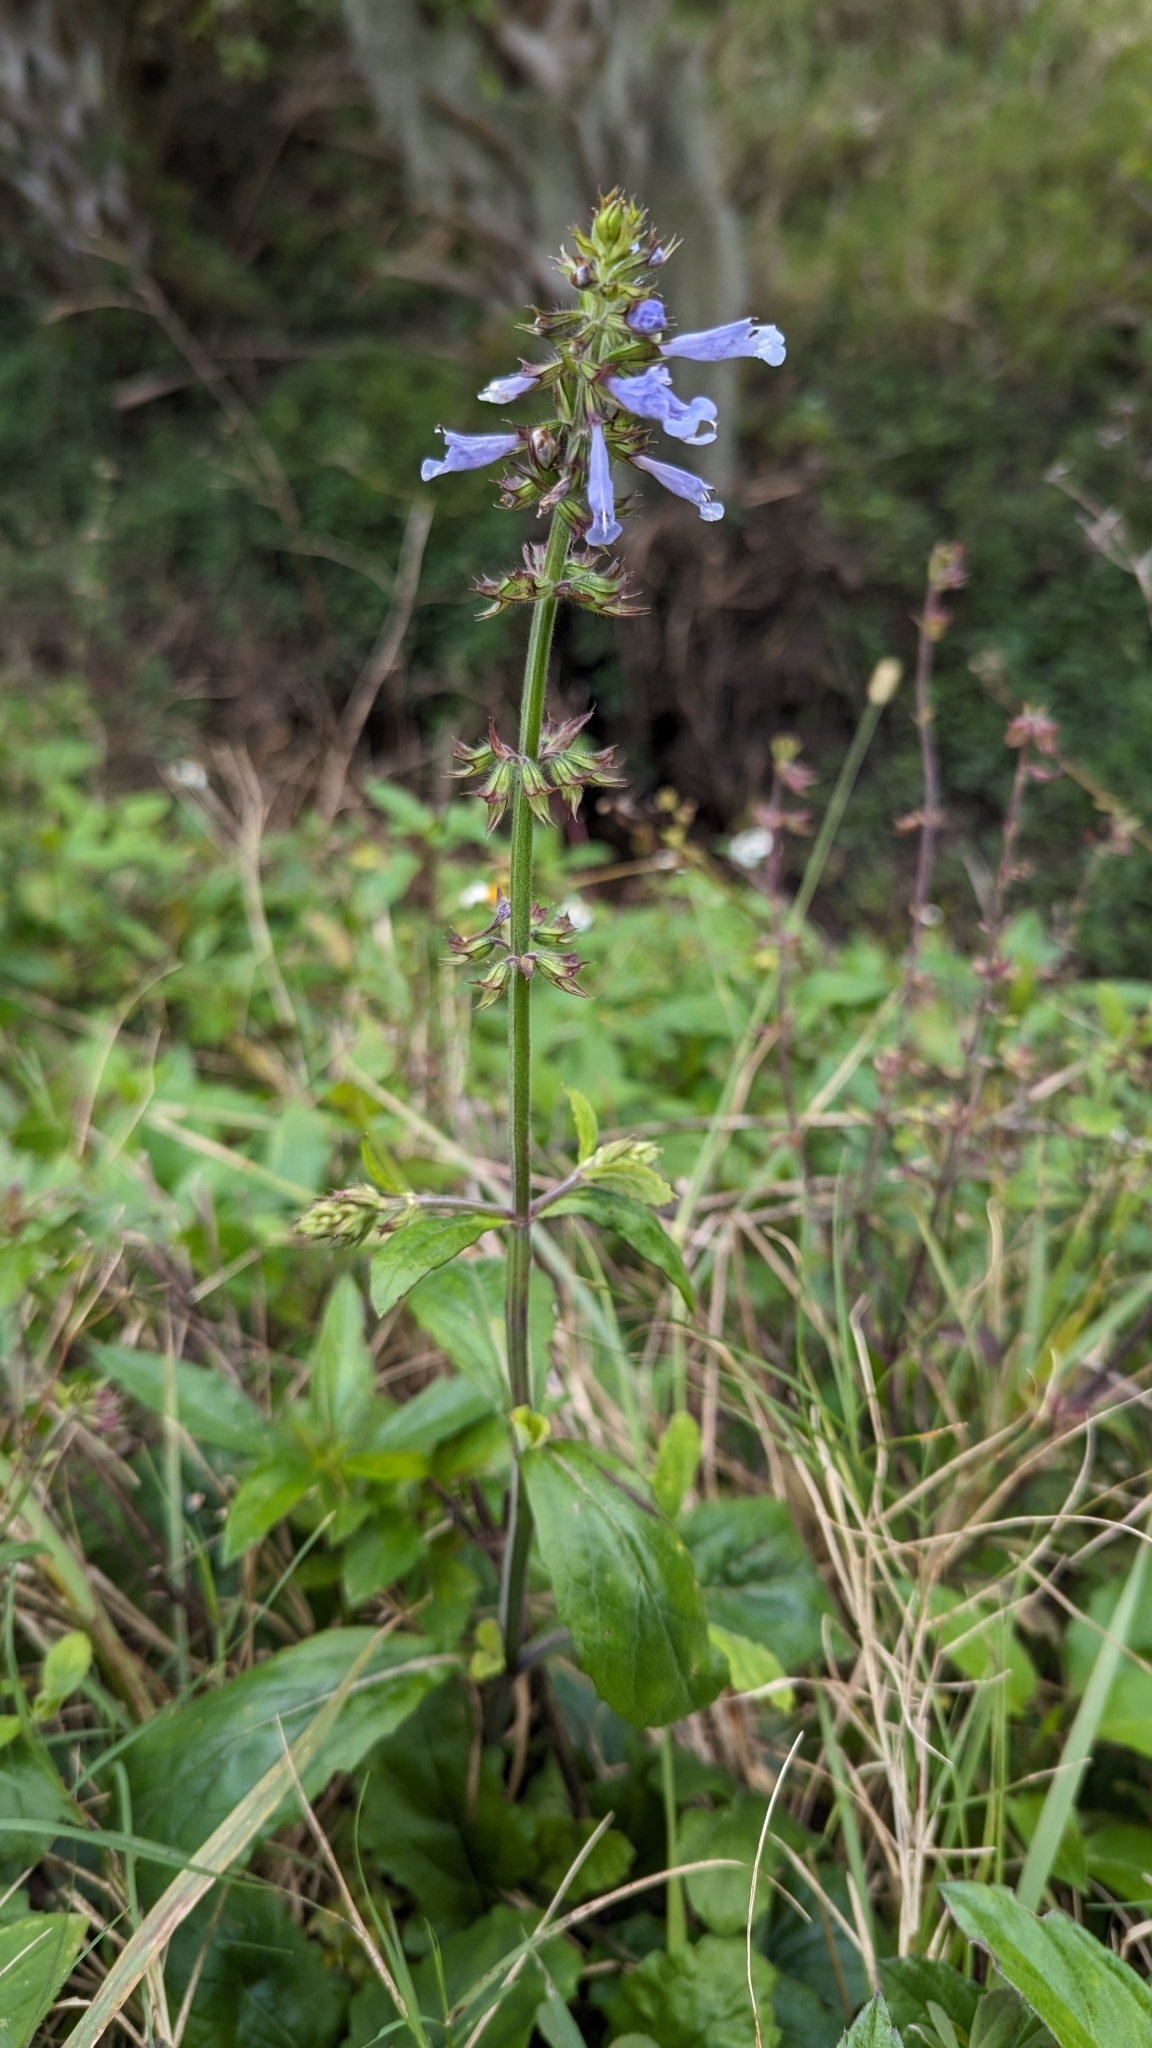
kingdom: Plantae
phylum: Tracheophyta
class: Magnoliopsida
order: Lamiales
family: Lamiaceae
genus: Salvia
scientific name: Salvia lyrata
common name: Cancerweed
